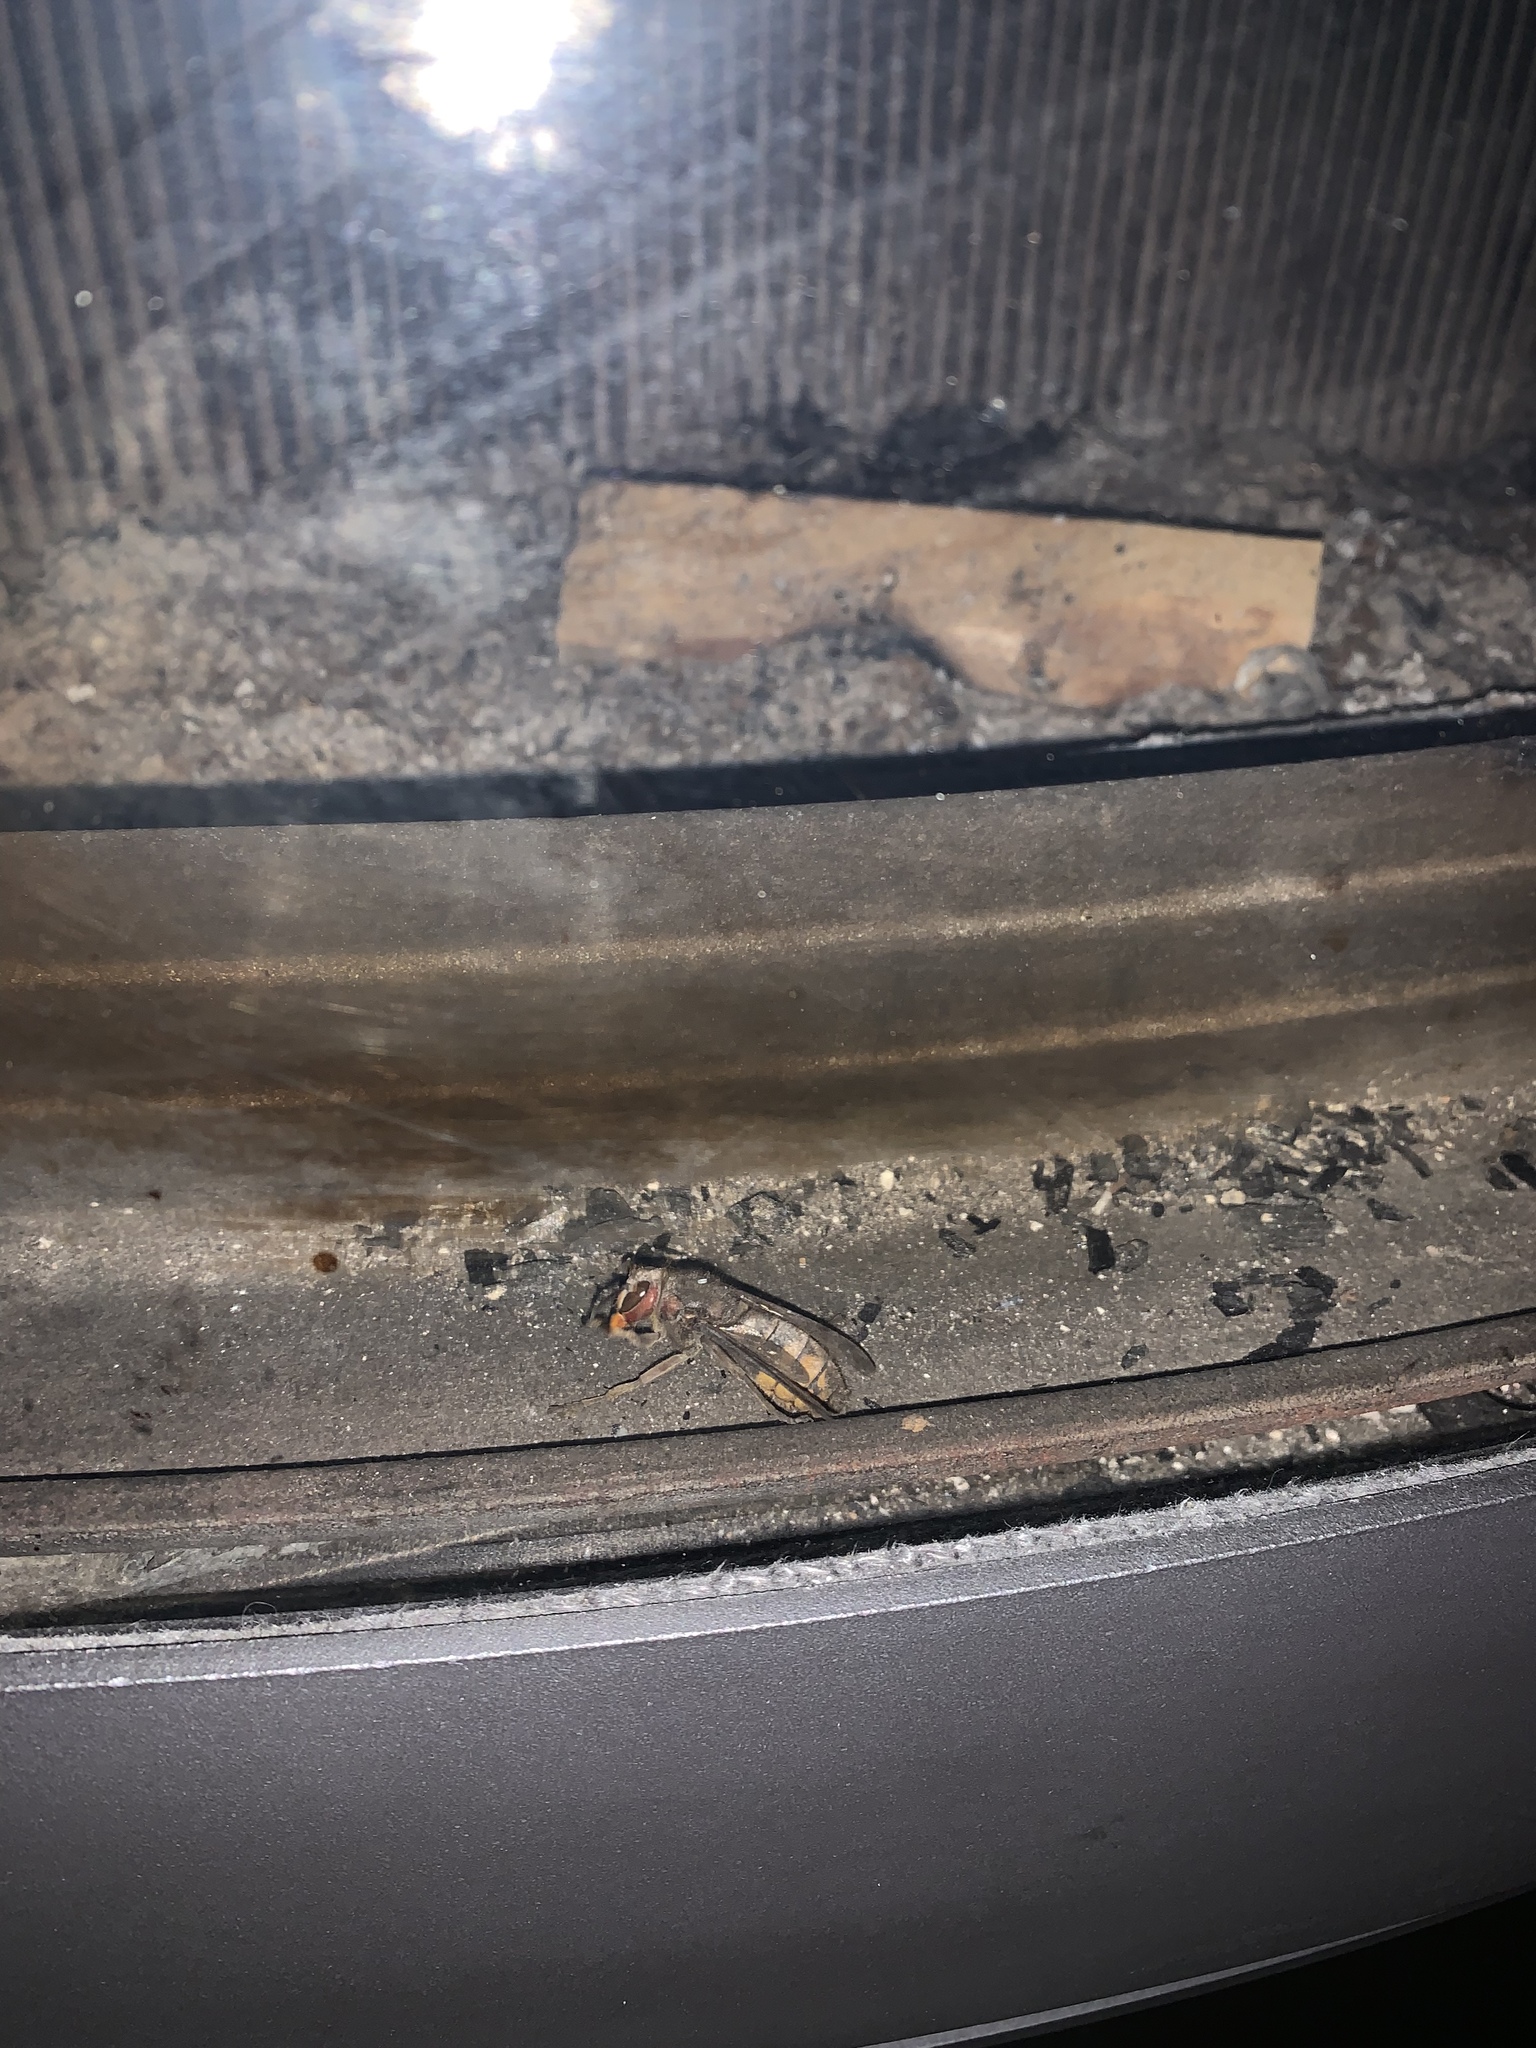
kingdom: Animalia
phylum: Arthropoda
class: Insecta
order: Hymenoptera
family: Vespidae
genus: Vespa
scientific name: Vespa crabro
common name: Hornet
